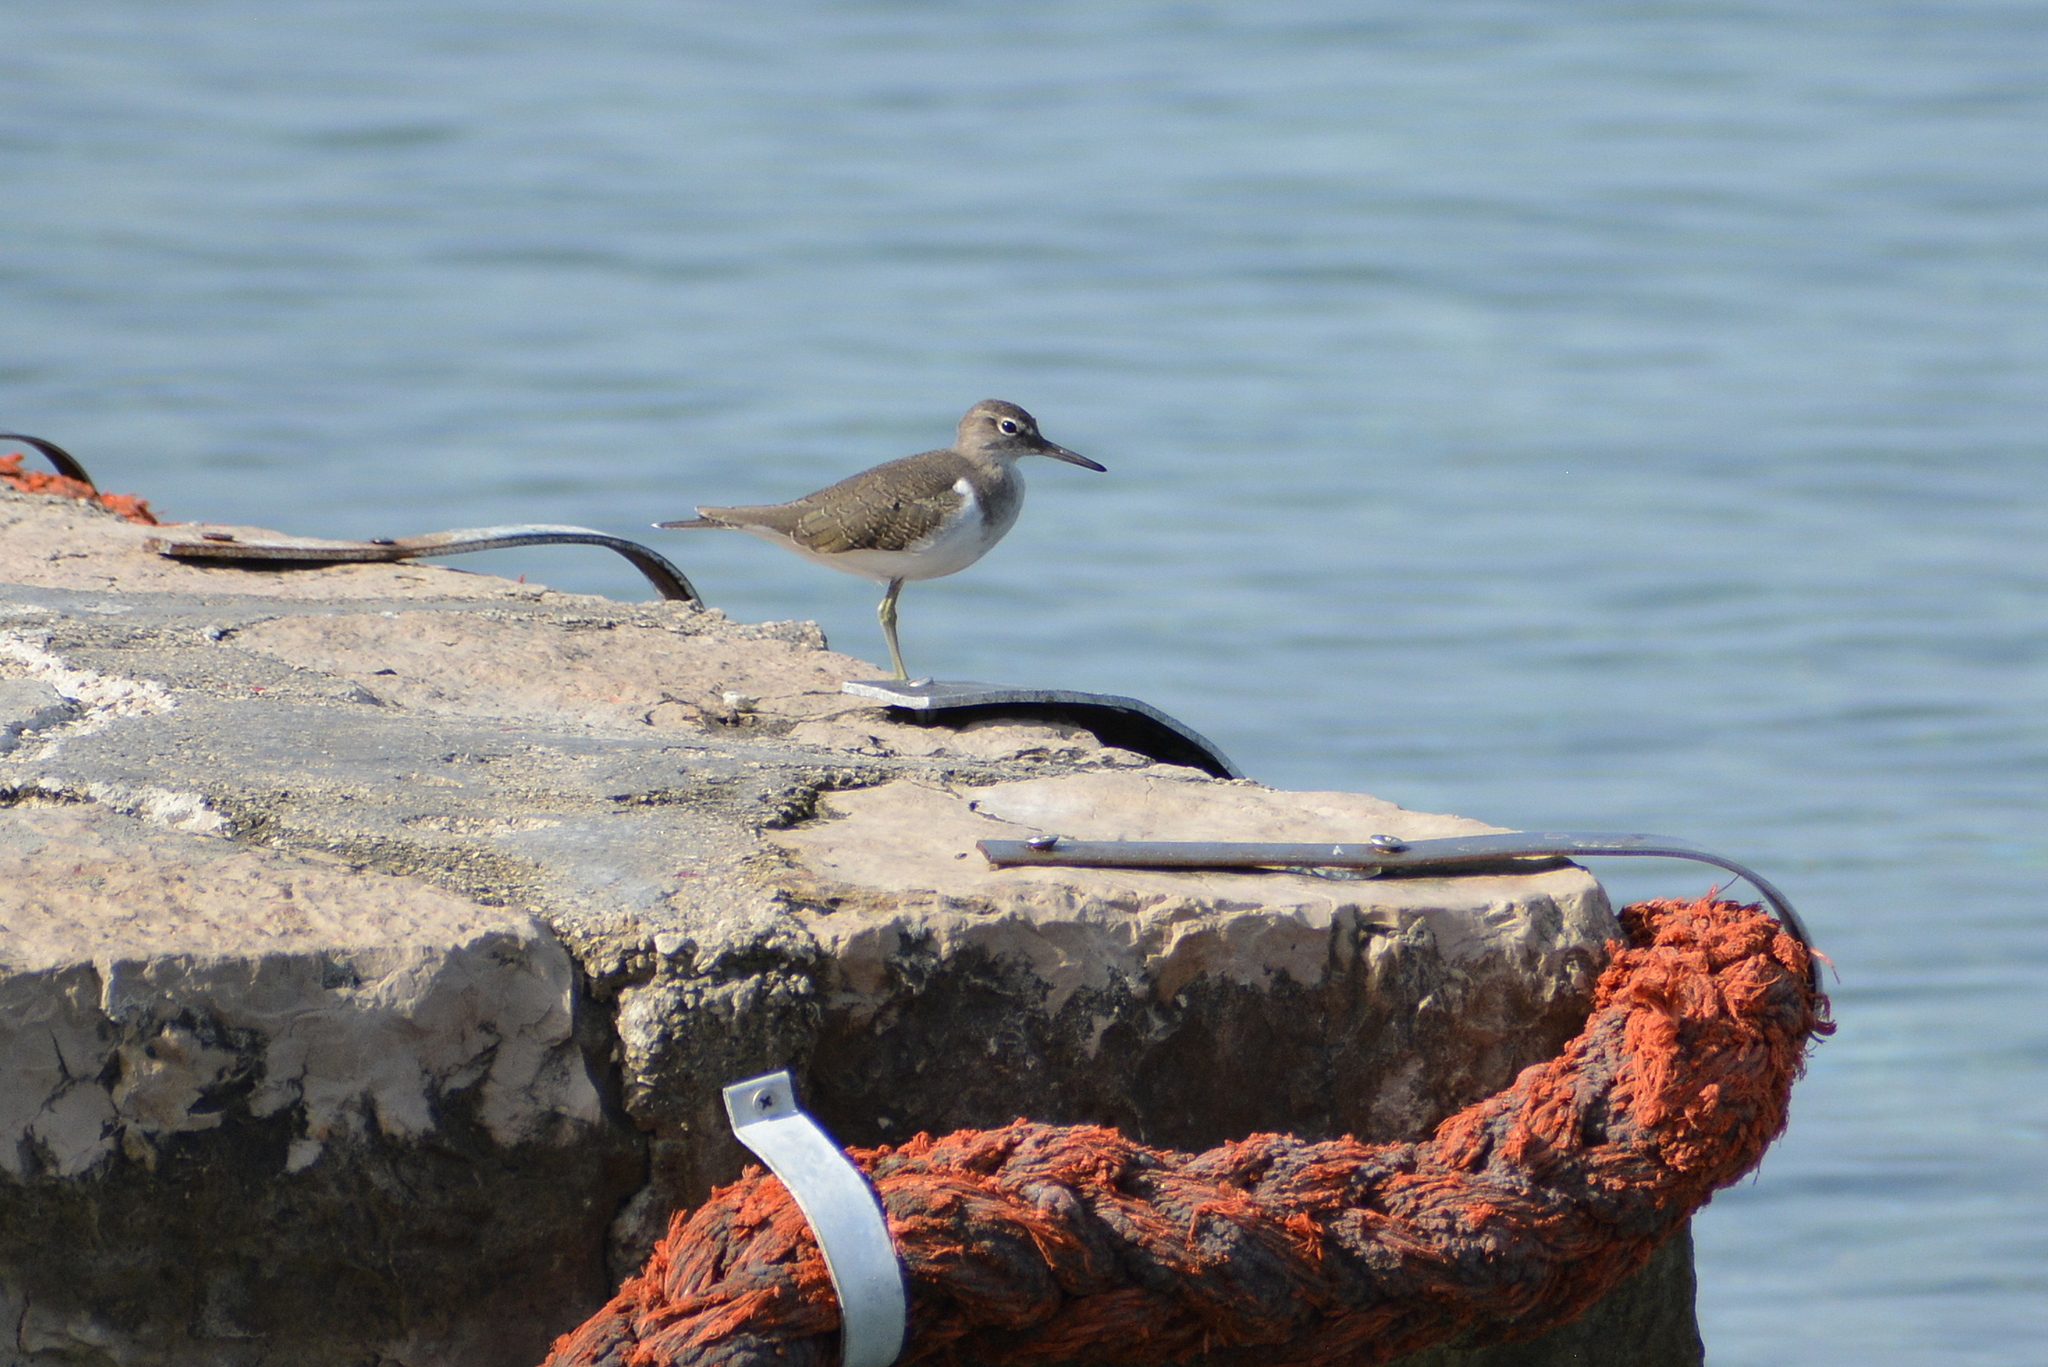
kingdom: Animalia
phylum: Chordata
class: Aves
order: Charadriiformes
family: Scolopacidae
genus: Actitis
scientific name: Actitis hypoleucos
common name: Common sandpiper
